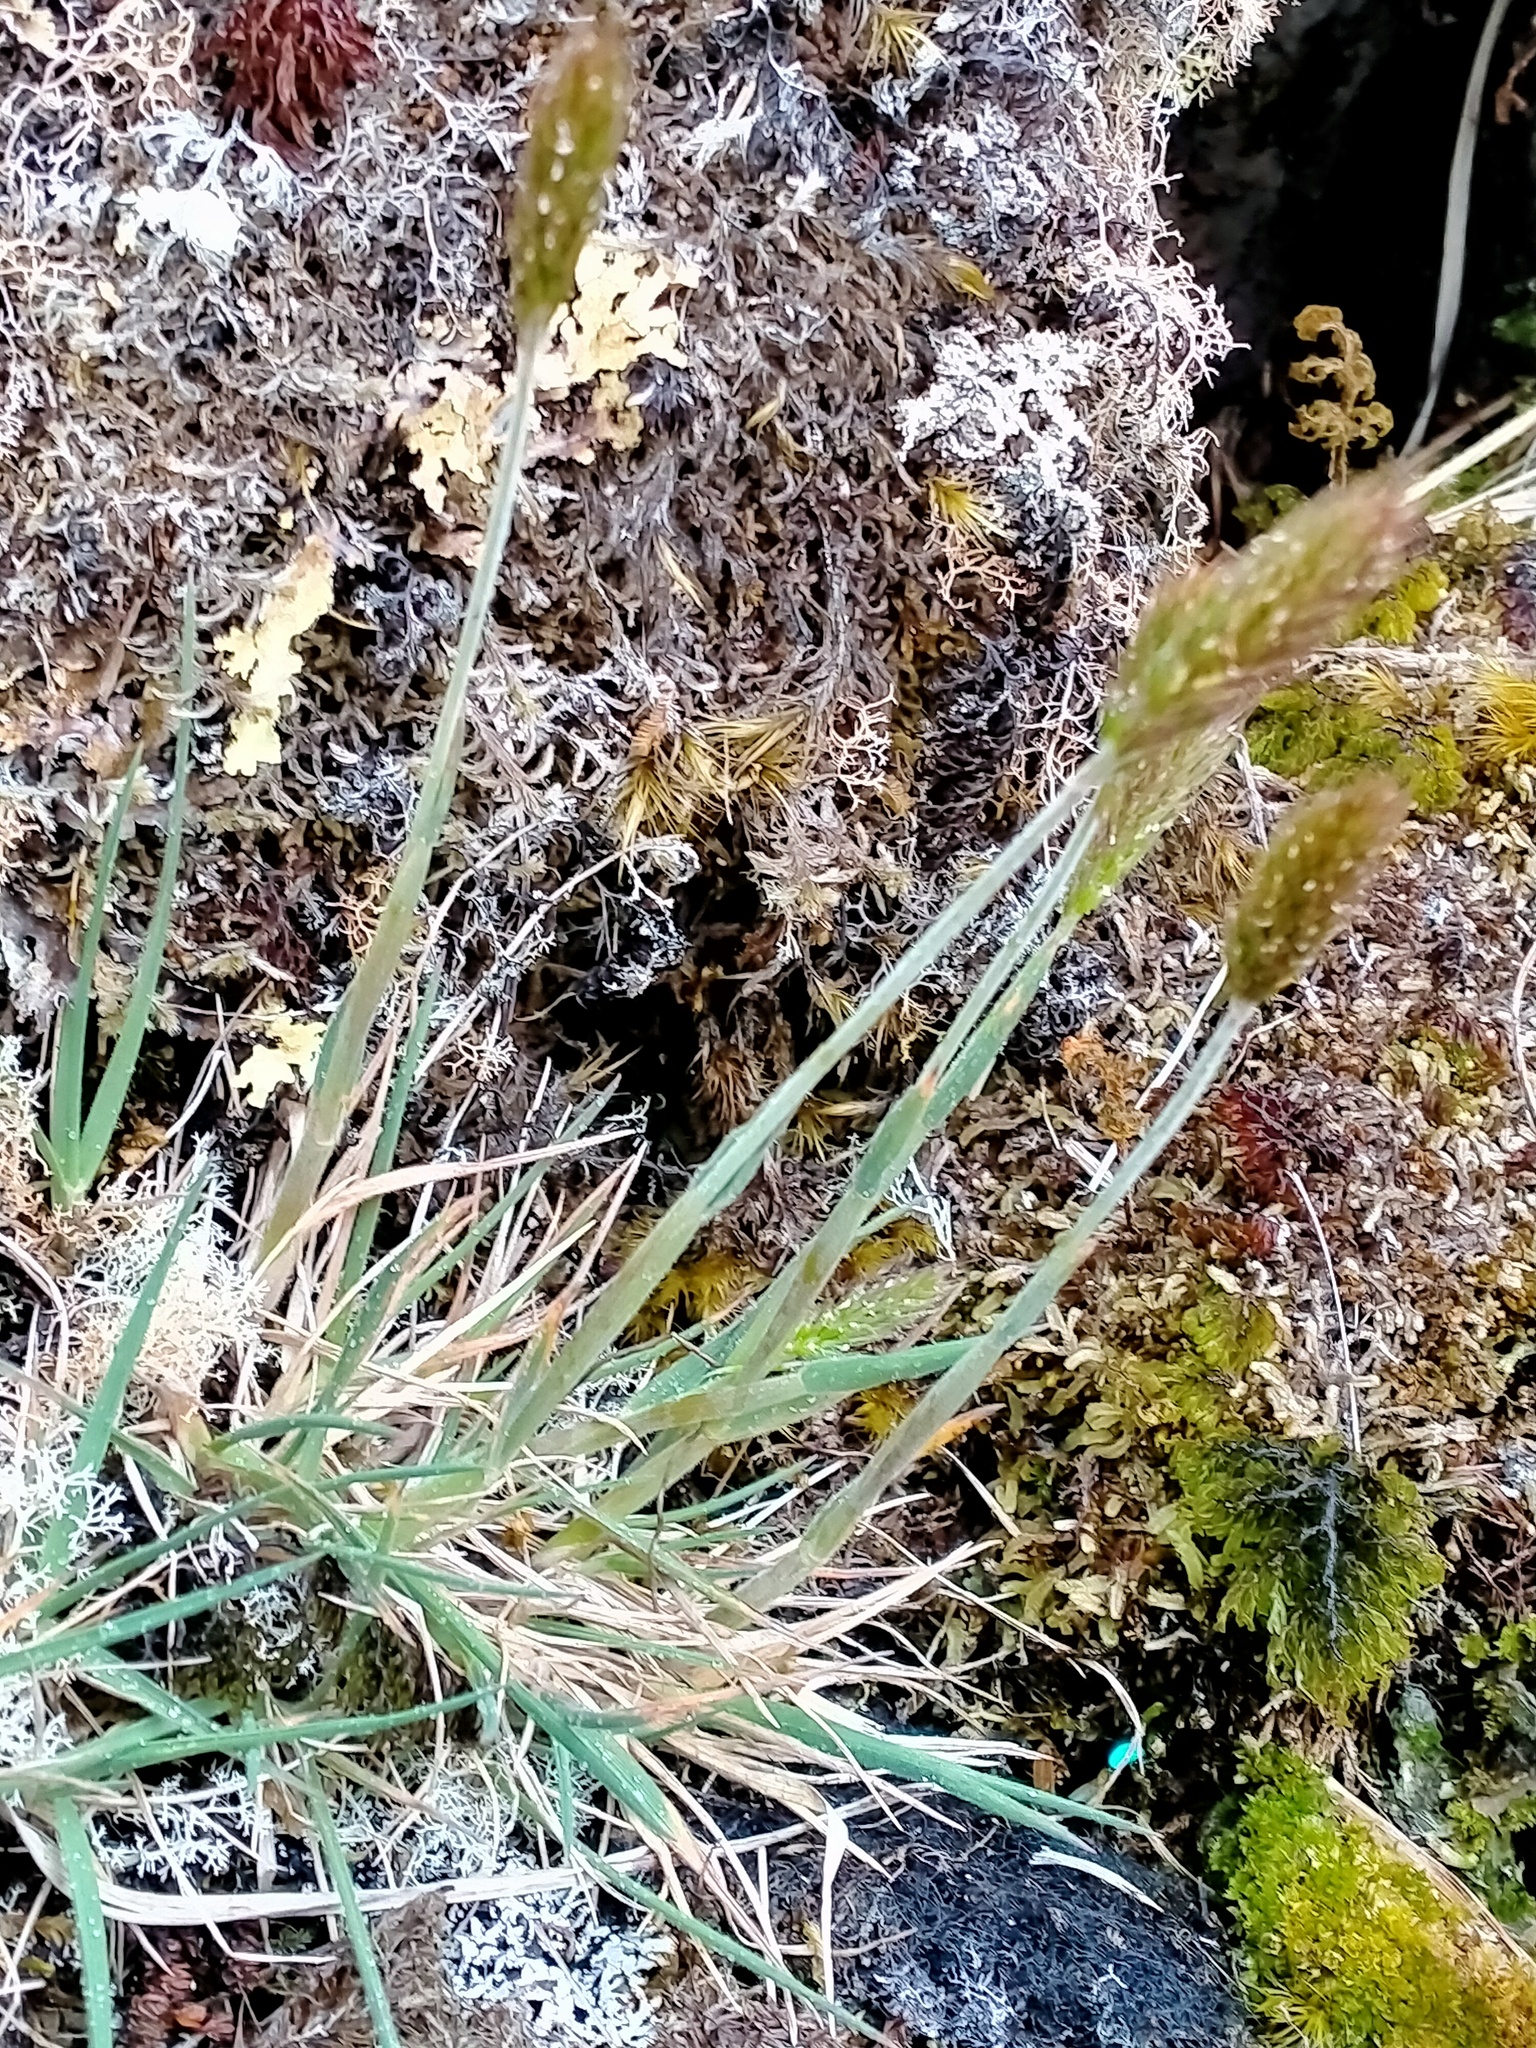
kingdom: Plantae
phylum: Tracheophyta
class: Liliopsida
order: Poales
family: Poaceae
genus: Koeleria
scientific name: Koeleria spicata
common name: Mountain trisetum
